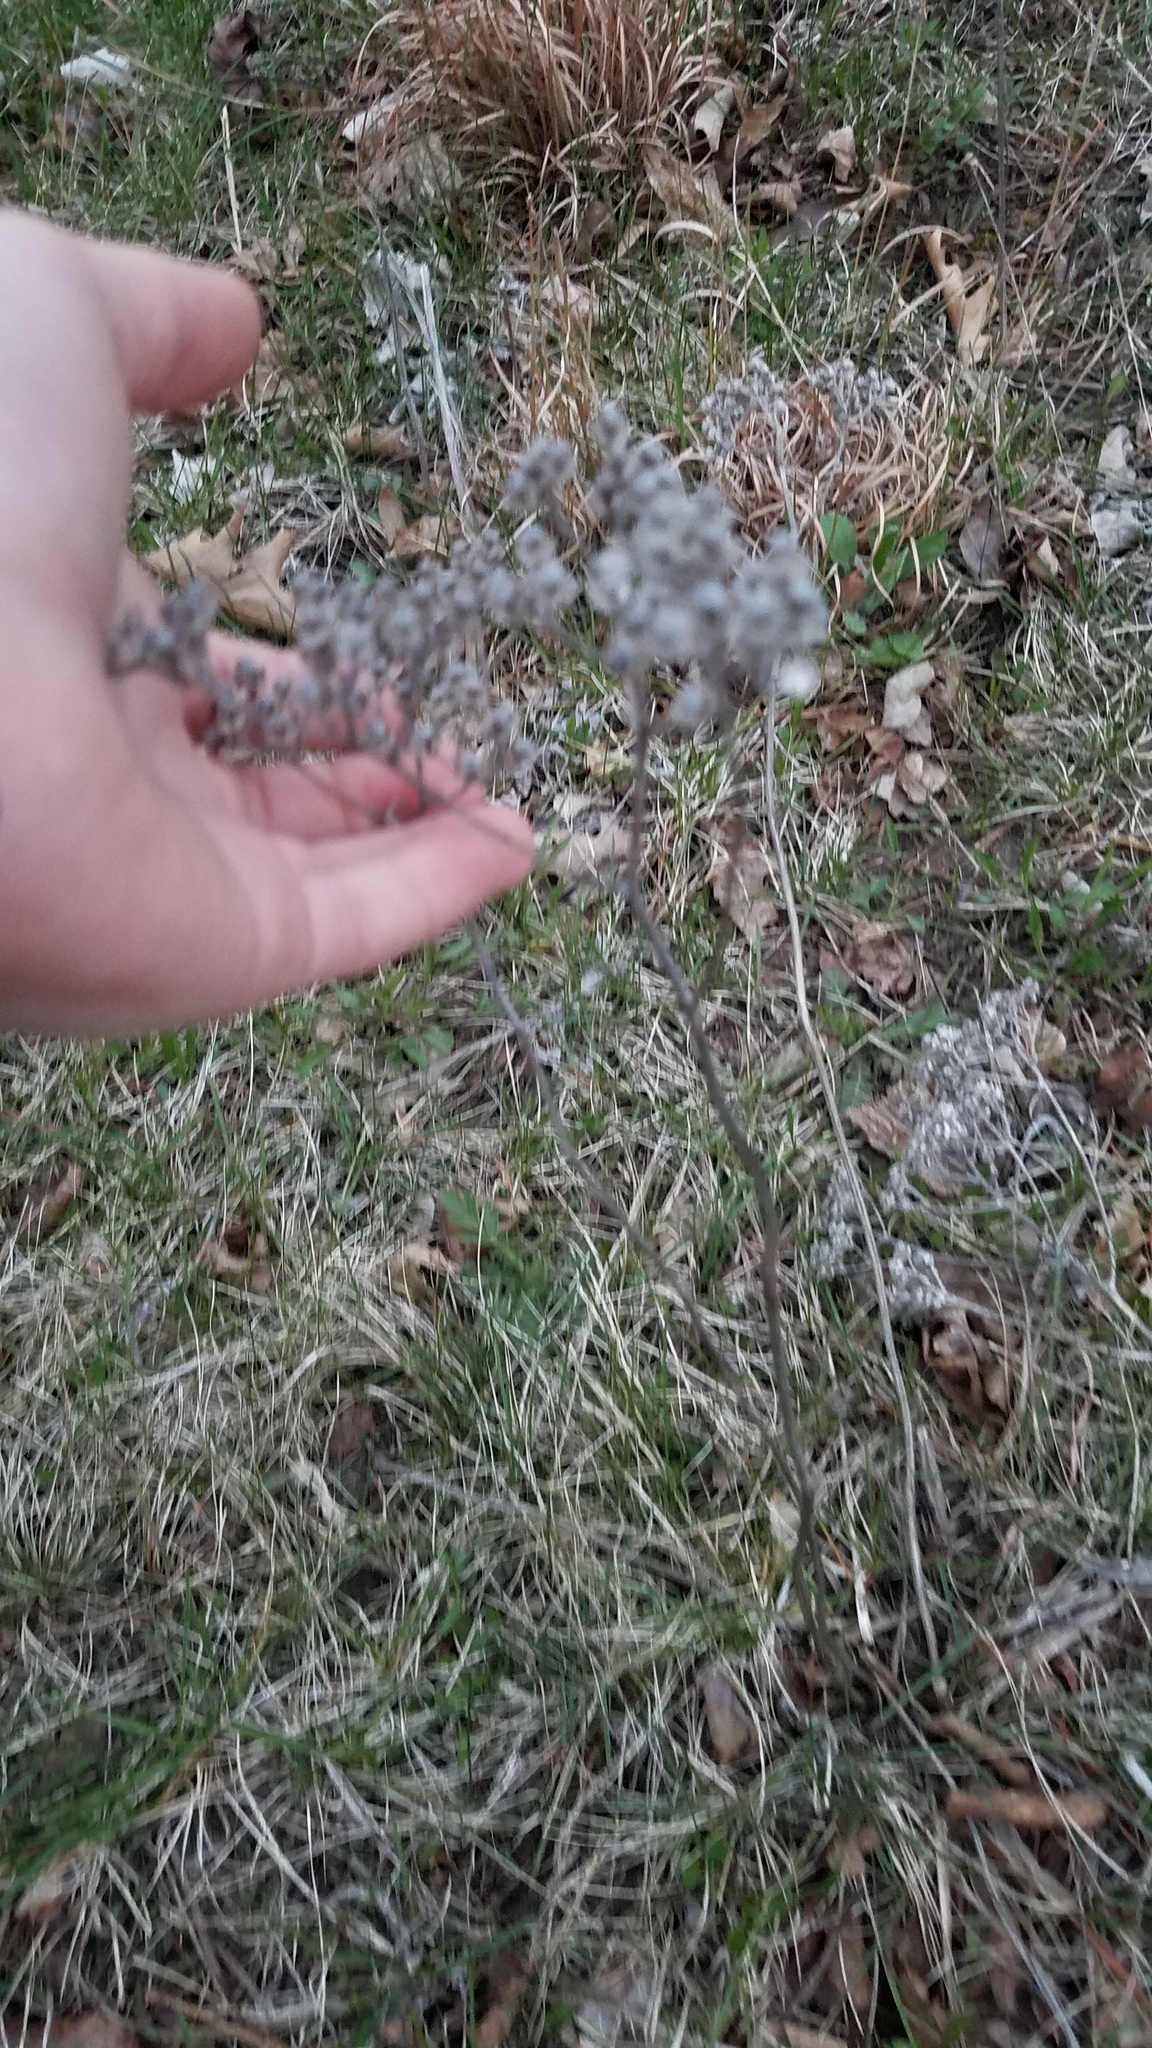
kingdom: Plantae
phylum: Tracheophyta
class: Magnoliopsida
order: Asterales
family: Asteraceae
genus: Parthenium
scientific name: Parthenium integrifolium
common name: American feverfew
